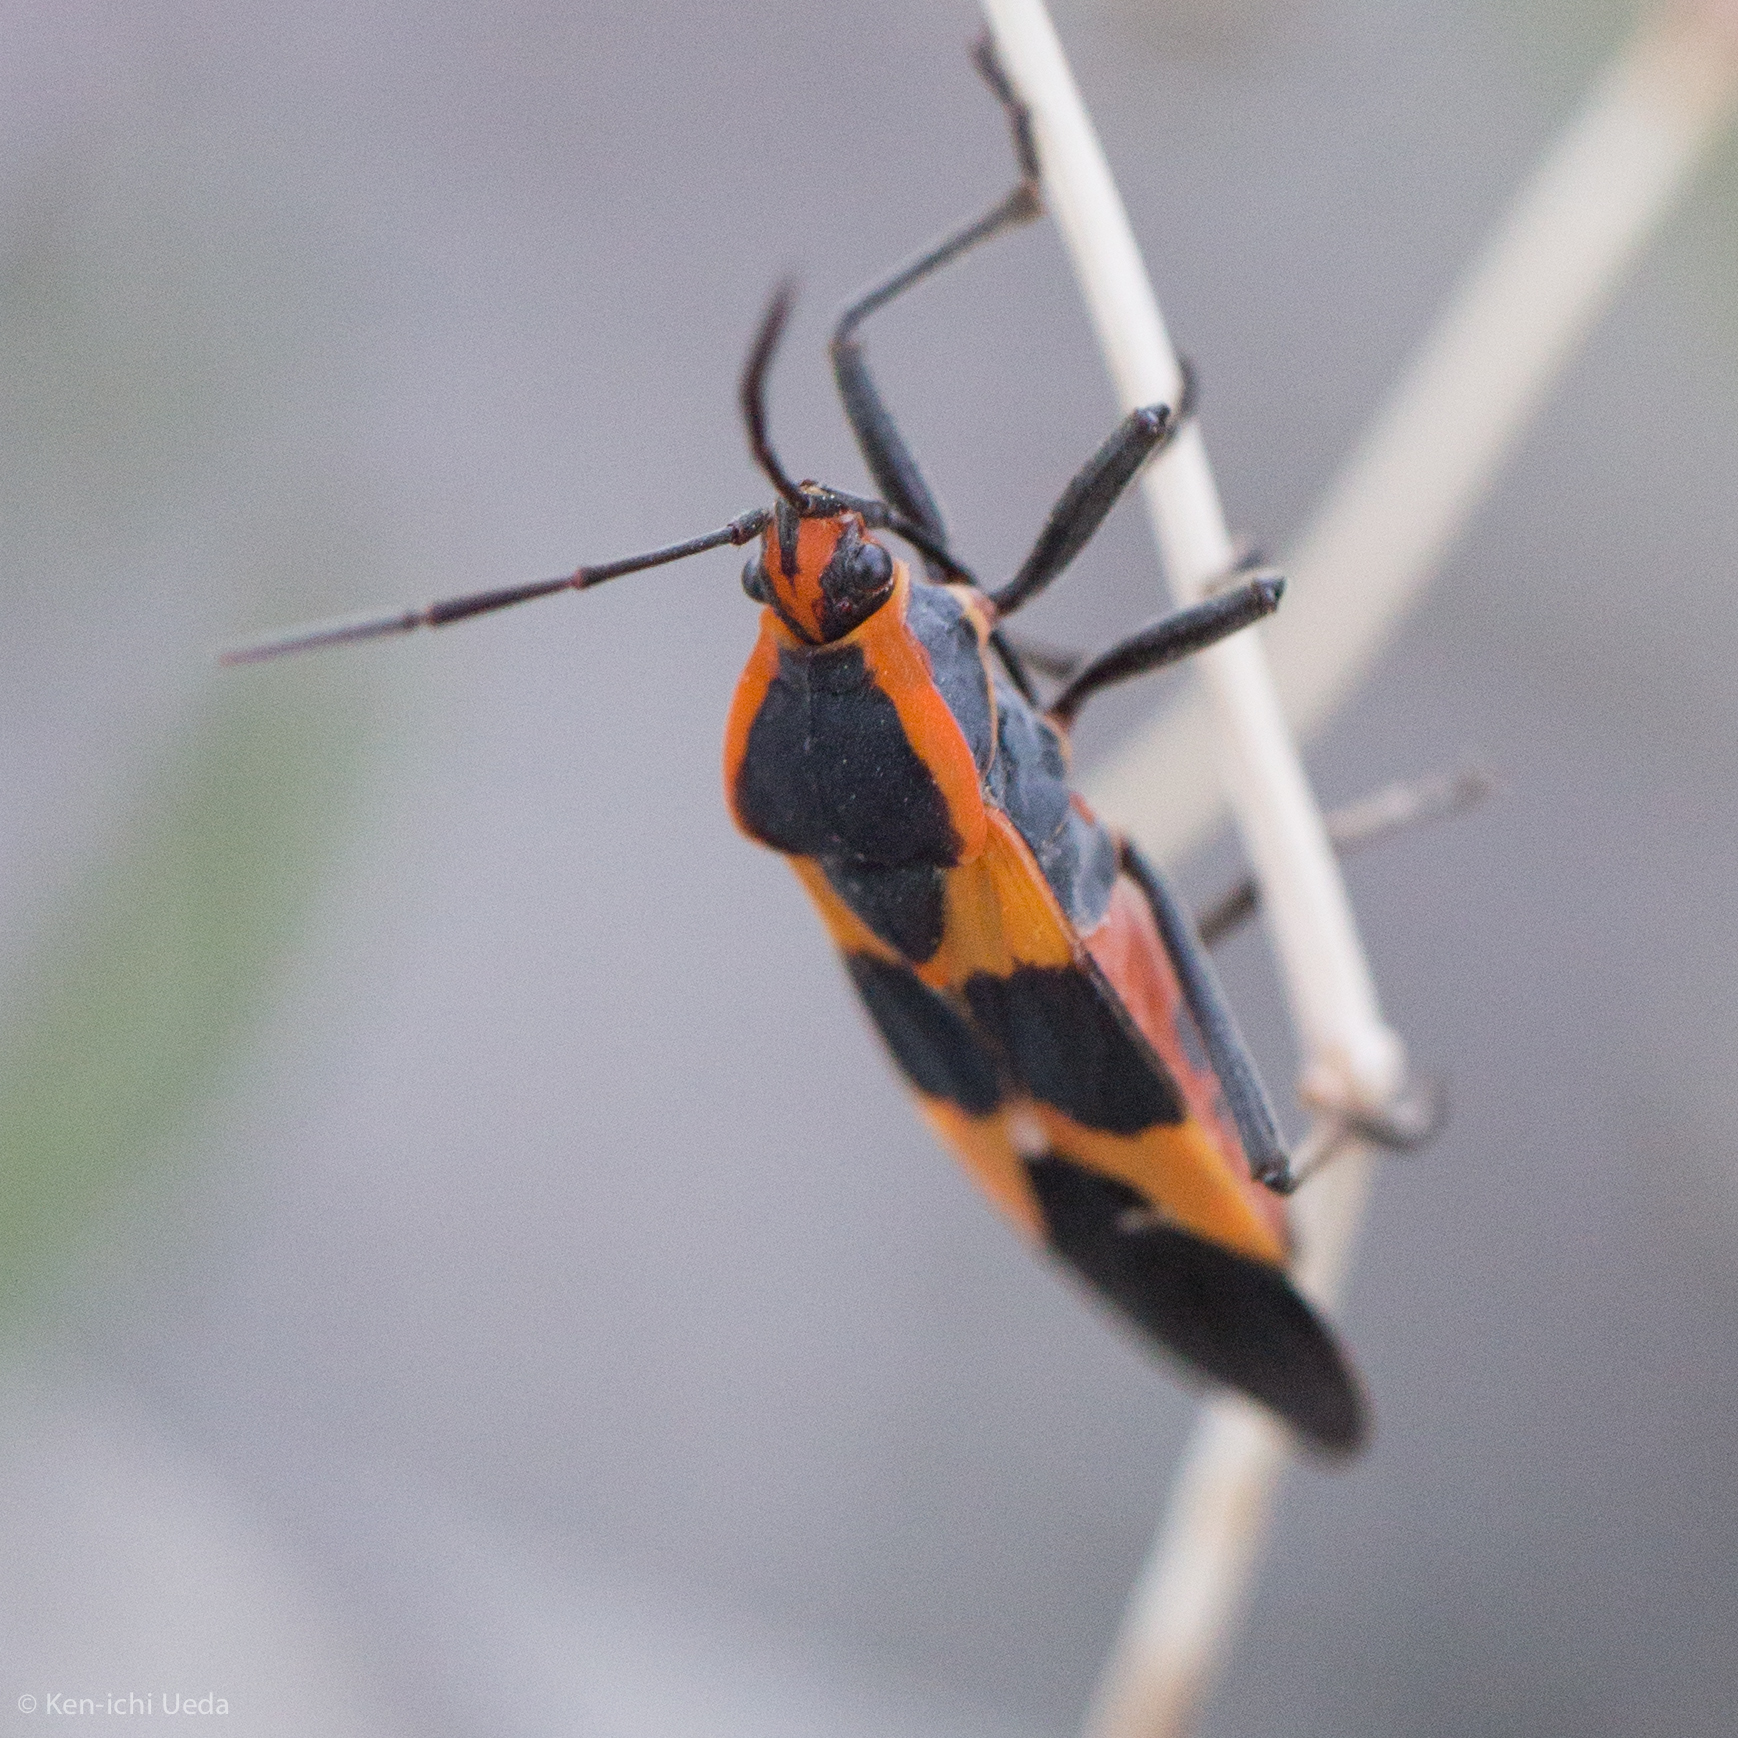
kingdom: Animalia
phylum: Arthropoda
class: Insecta
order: Hemiptera
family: Lygaeidae
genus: Oncopeltus
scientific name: Oncopeltus fasciatus
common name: Large milkweed bug
